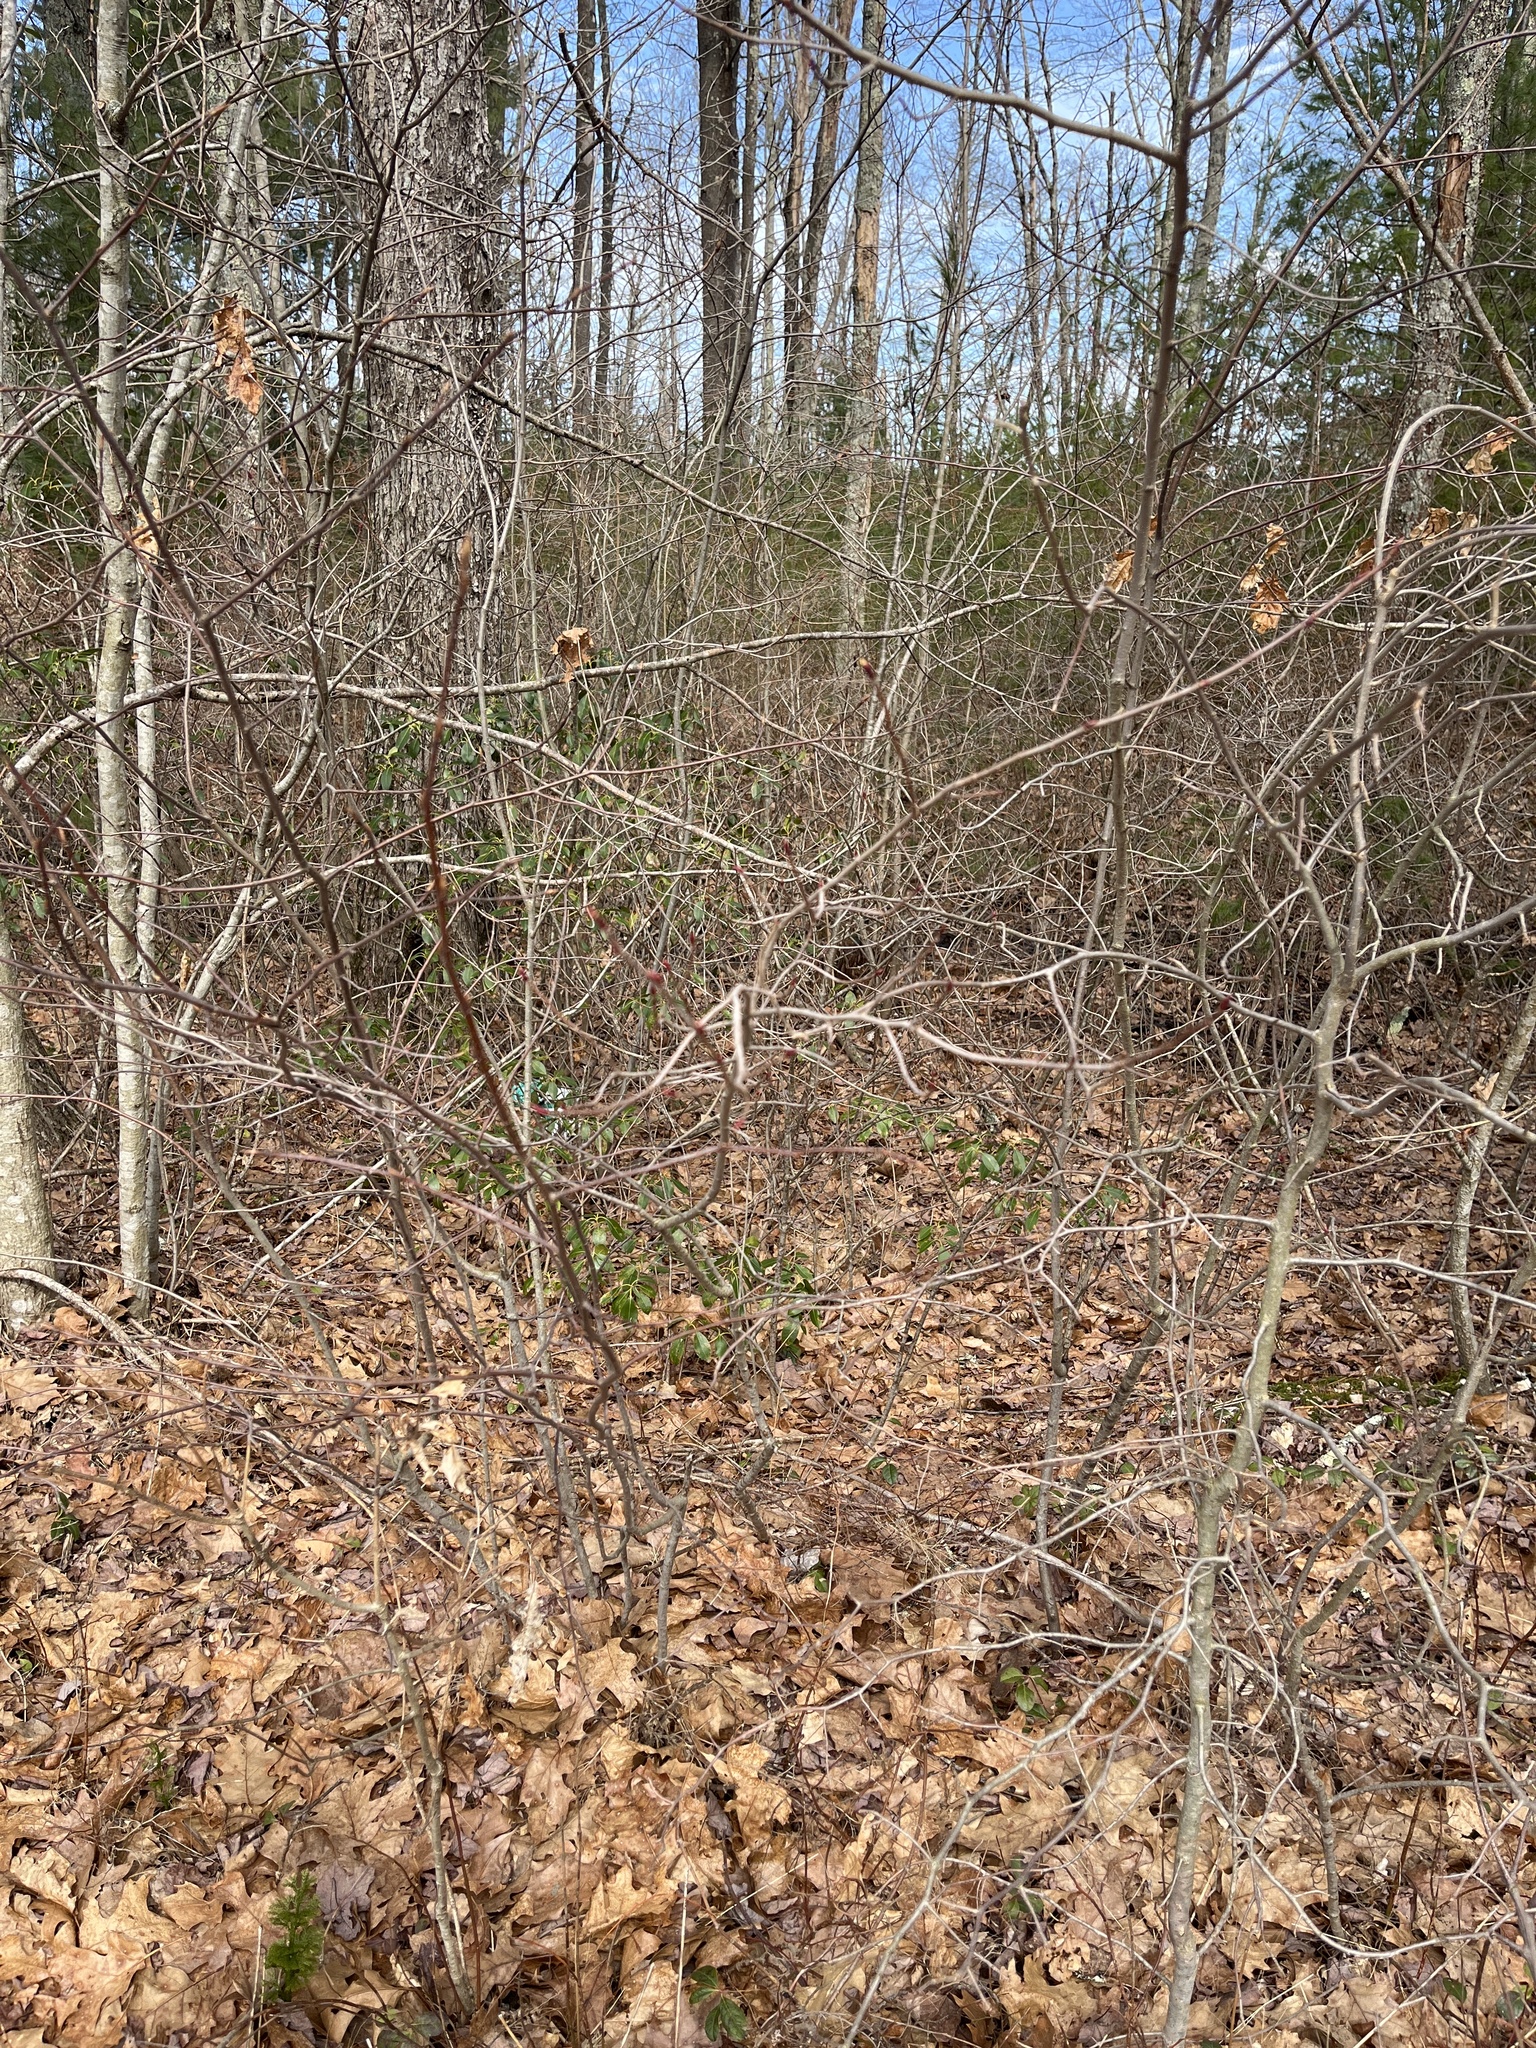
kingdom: Plantae
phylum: Tracheophyta
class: Magnoliopsida
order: Rosales
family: Rosaceae
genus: Aronia
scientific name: Aronia melanocarpa
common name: Black chokeberry
